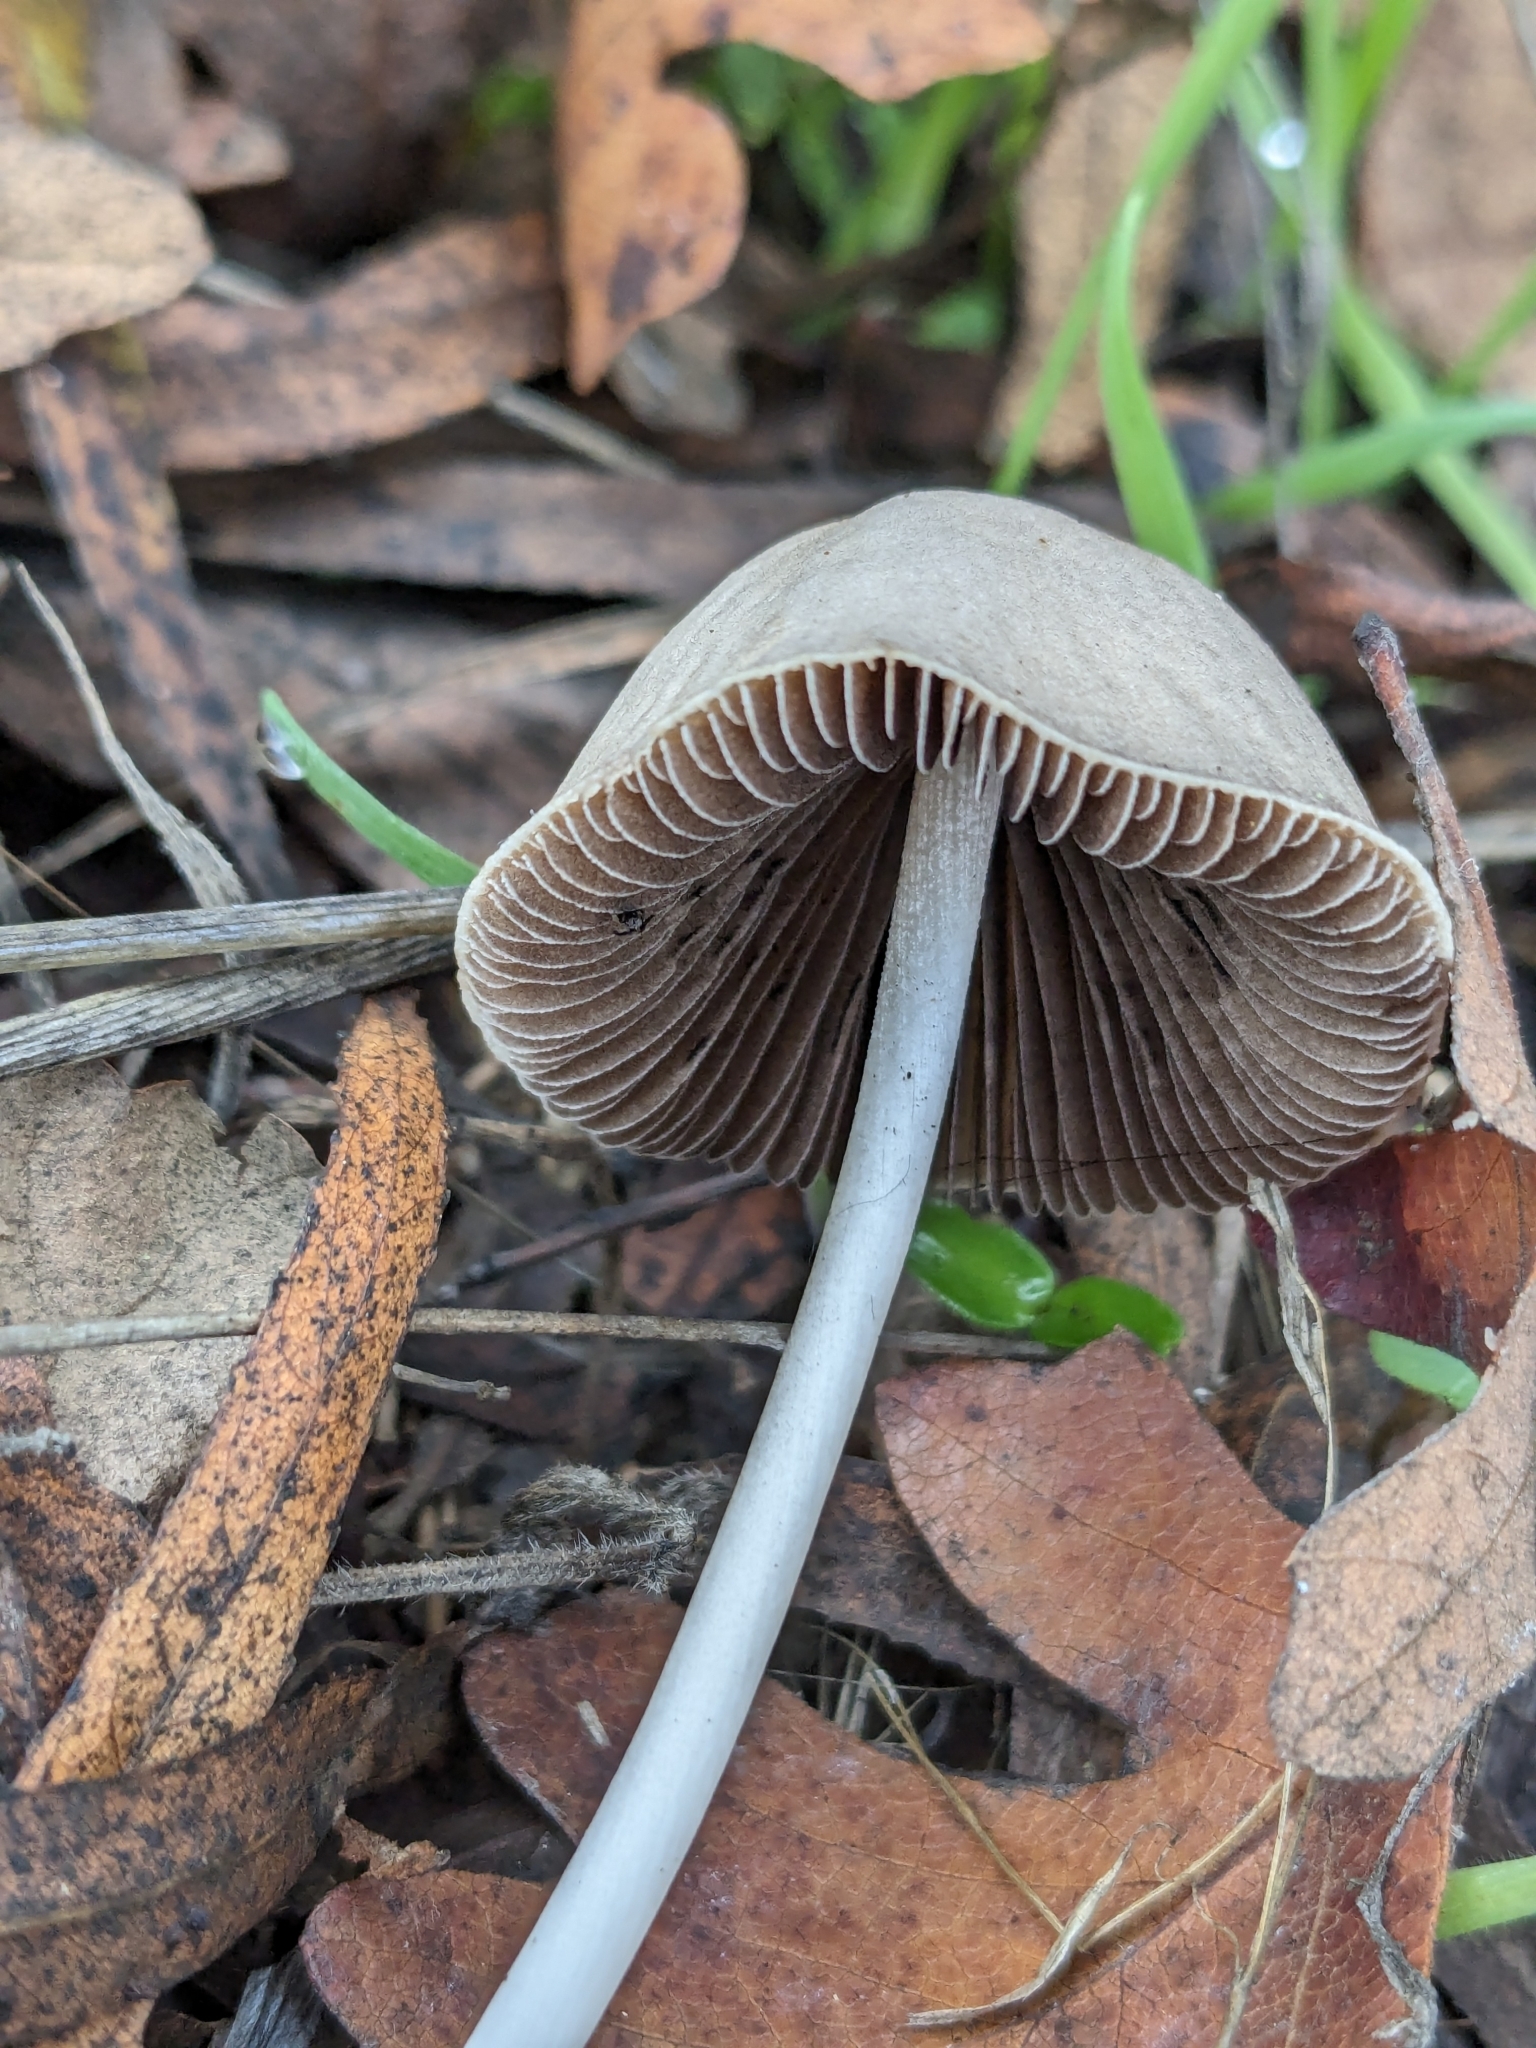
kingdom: Fungi
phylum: Basidiomycota
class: Agaricomycetes
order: Agaricales
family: Psathyrellaceae
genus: Psathyrella
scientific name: Psathyrella longipes
